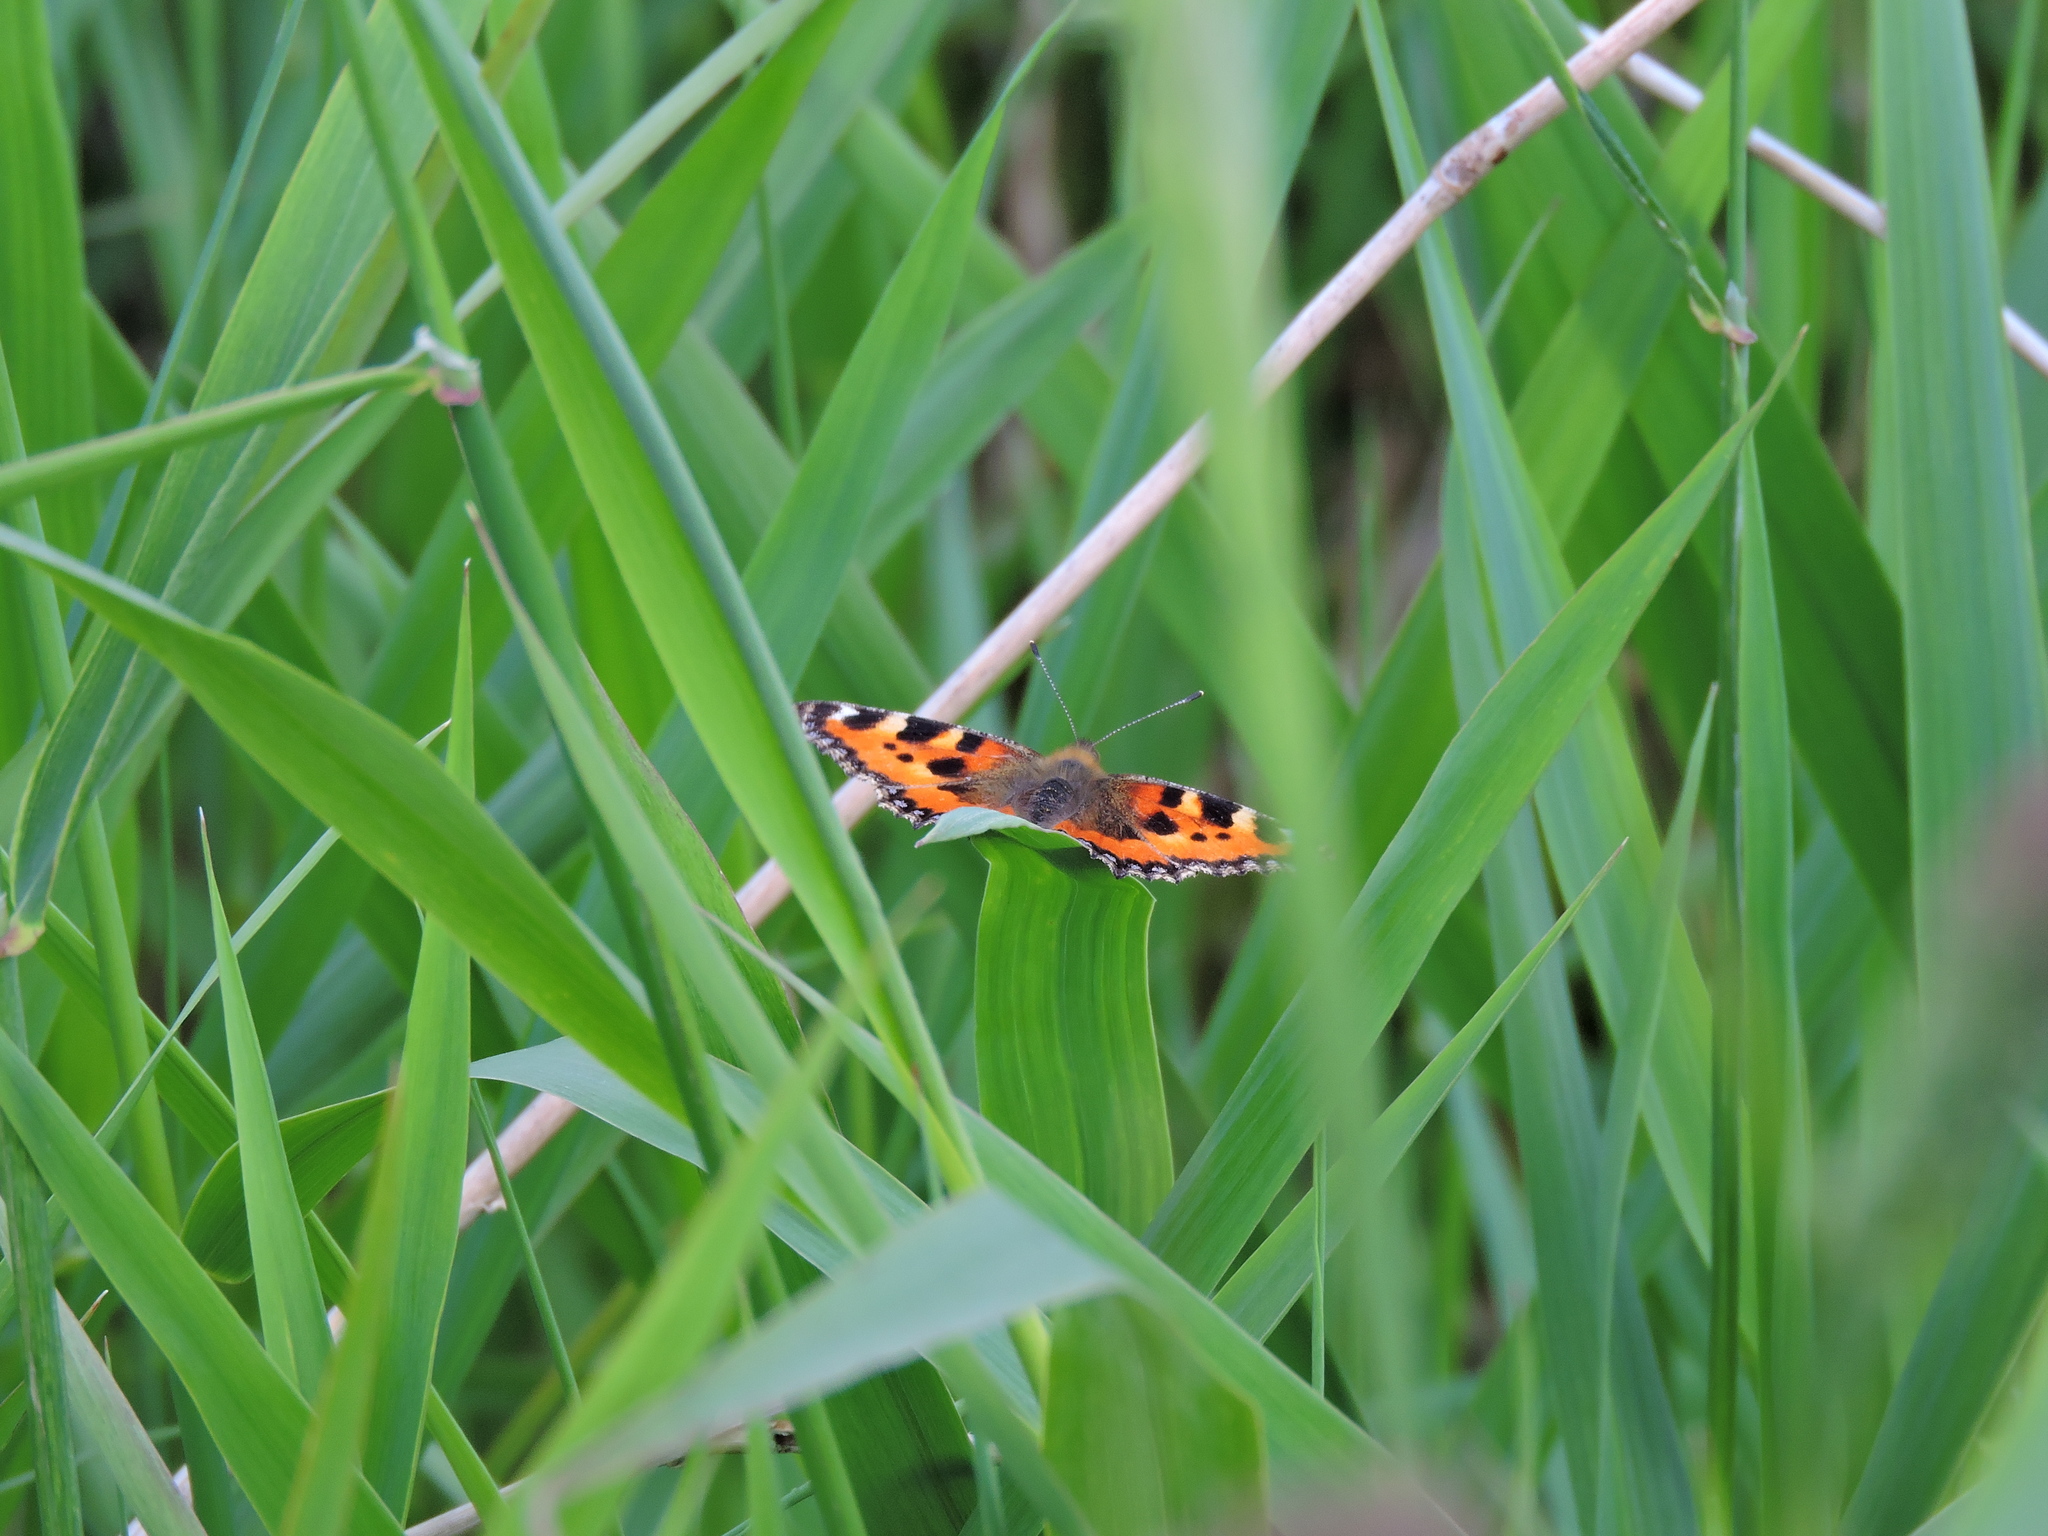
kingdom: Animalia
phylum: Arthropoda
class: Insecta
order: Lepidoptera
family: Nymphalidae
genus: Aglais
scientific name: Aglais urticae
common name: Small tortoiseshell
